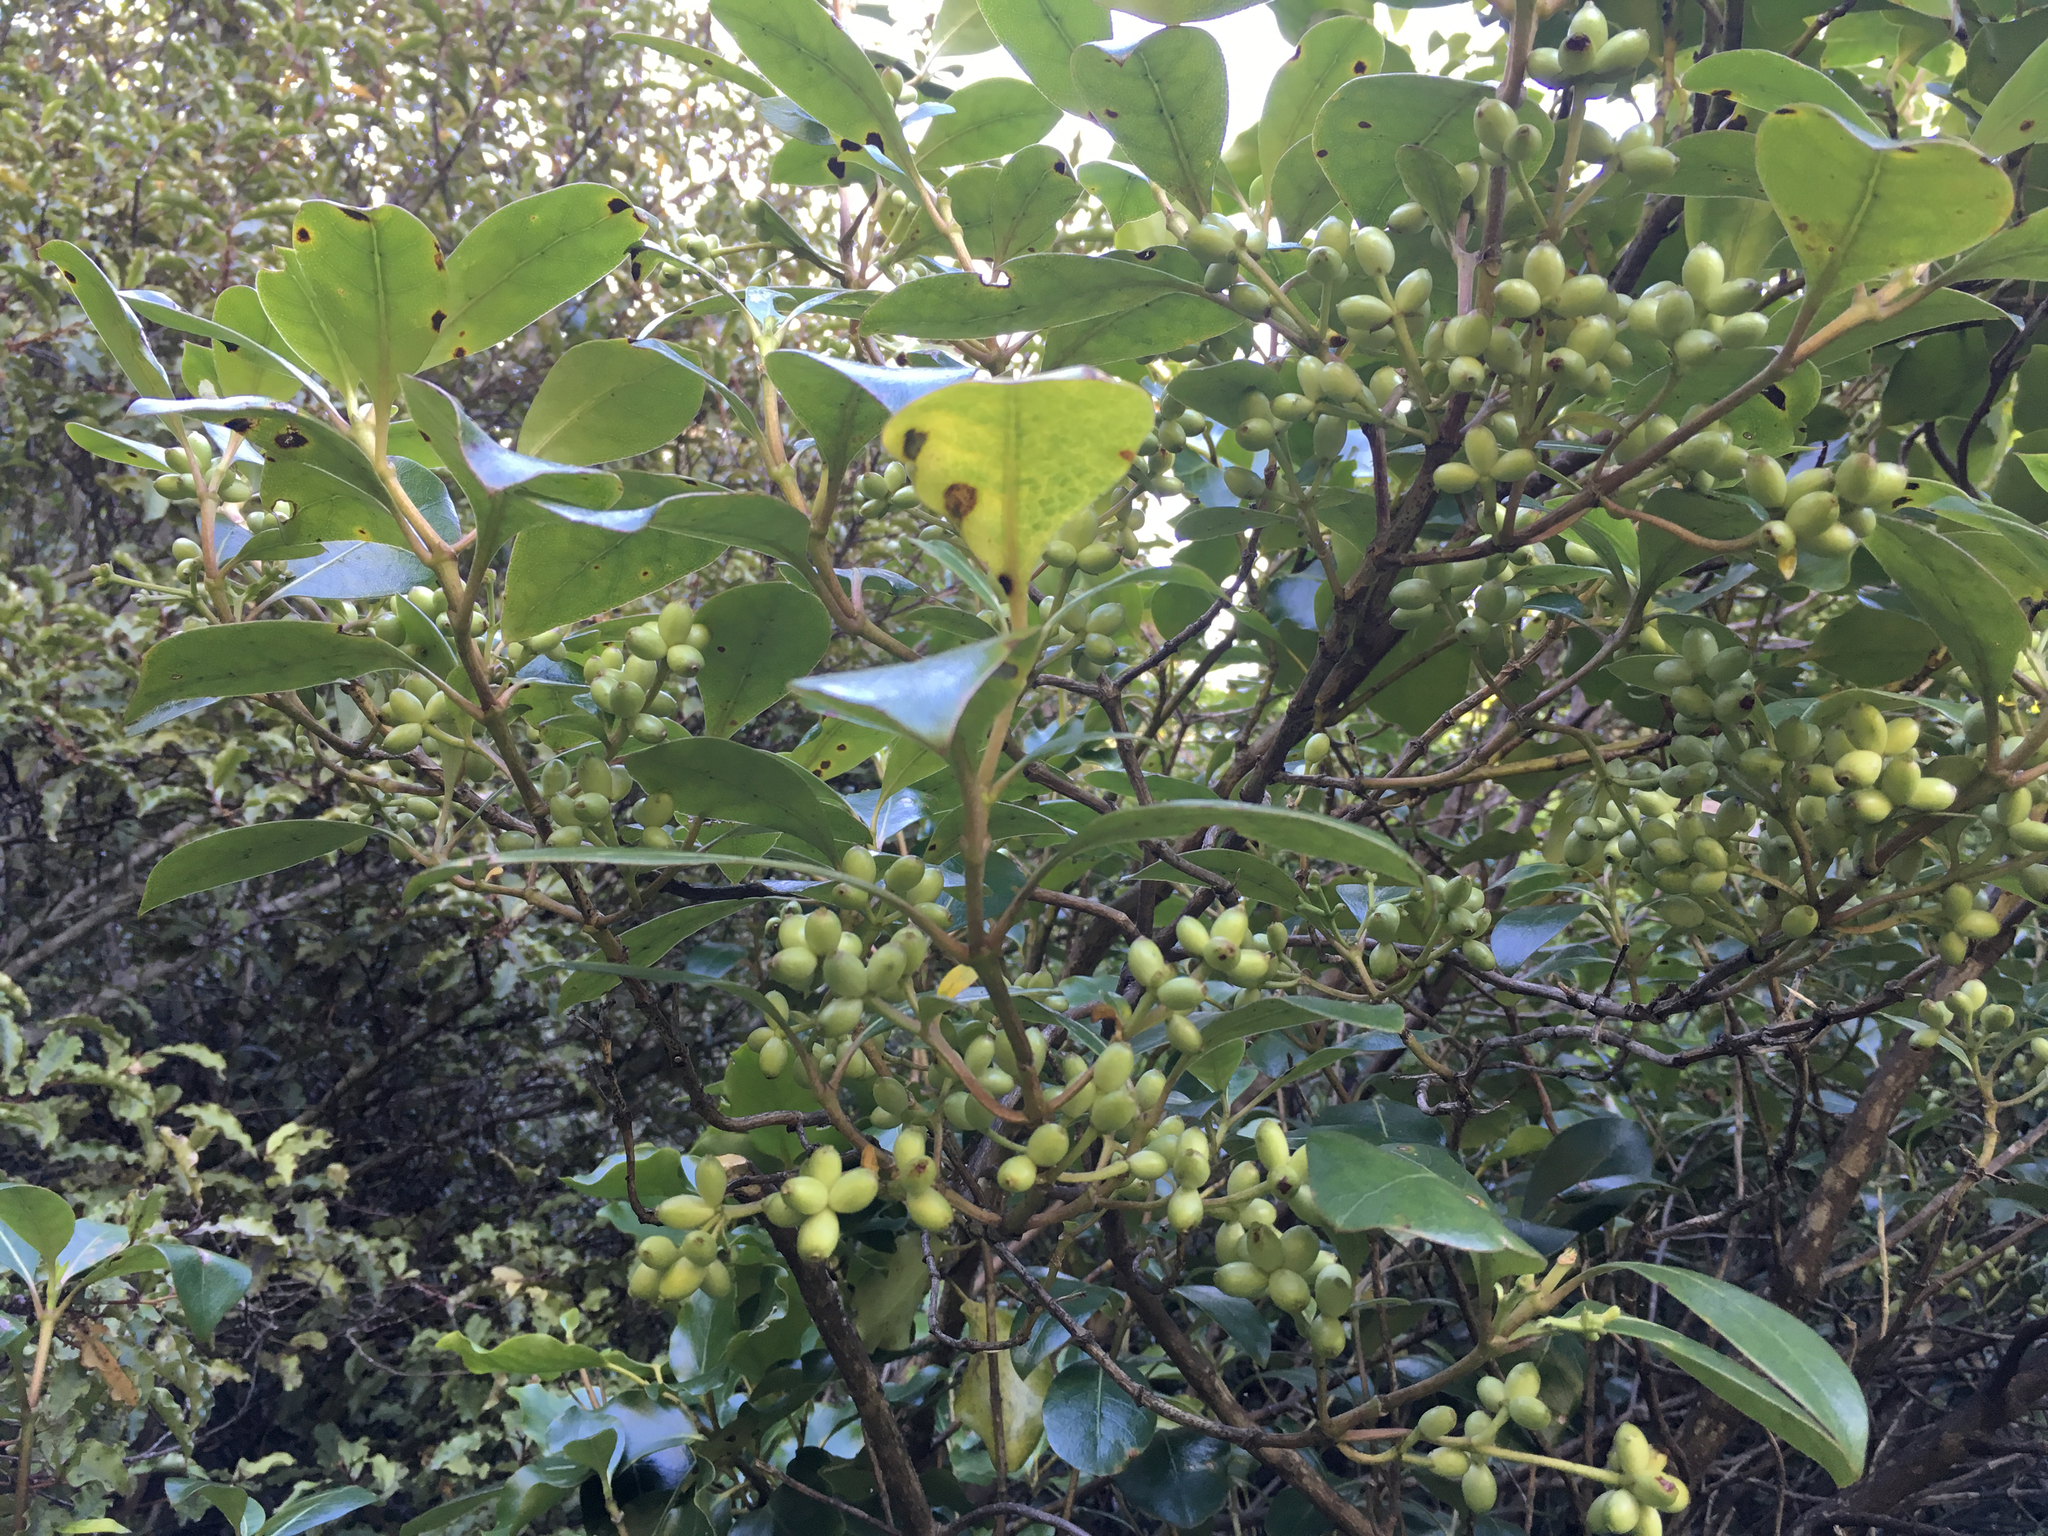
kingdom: Plantae
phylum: Tracheophyta
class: Magnoliopsida
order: Gentianales
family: Rubiaceae
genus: Coprosma
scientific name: Coprosma lucida
